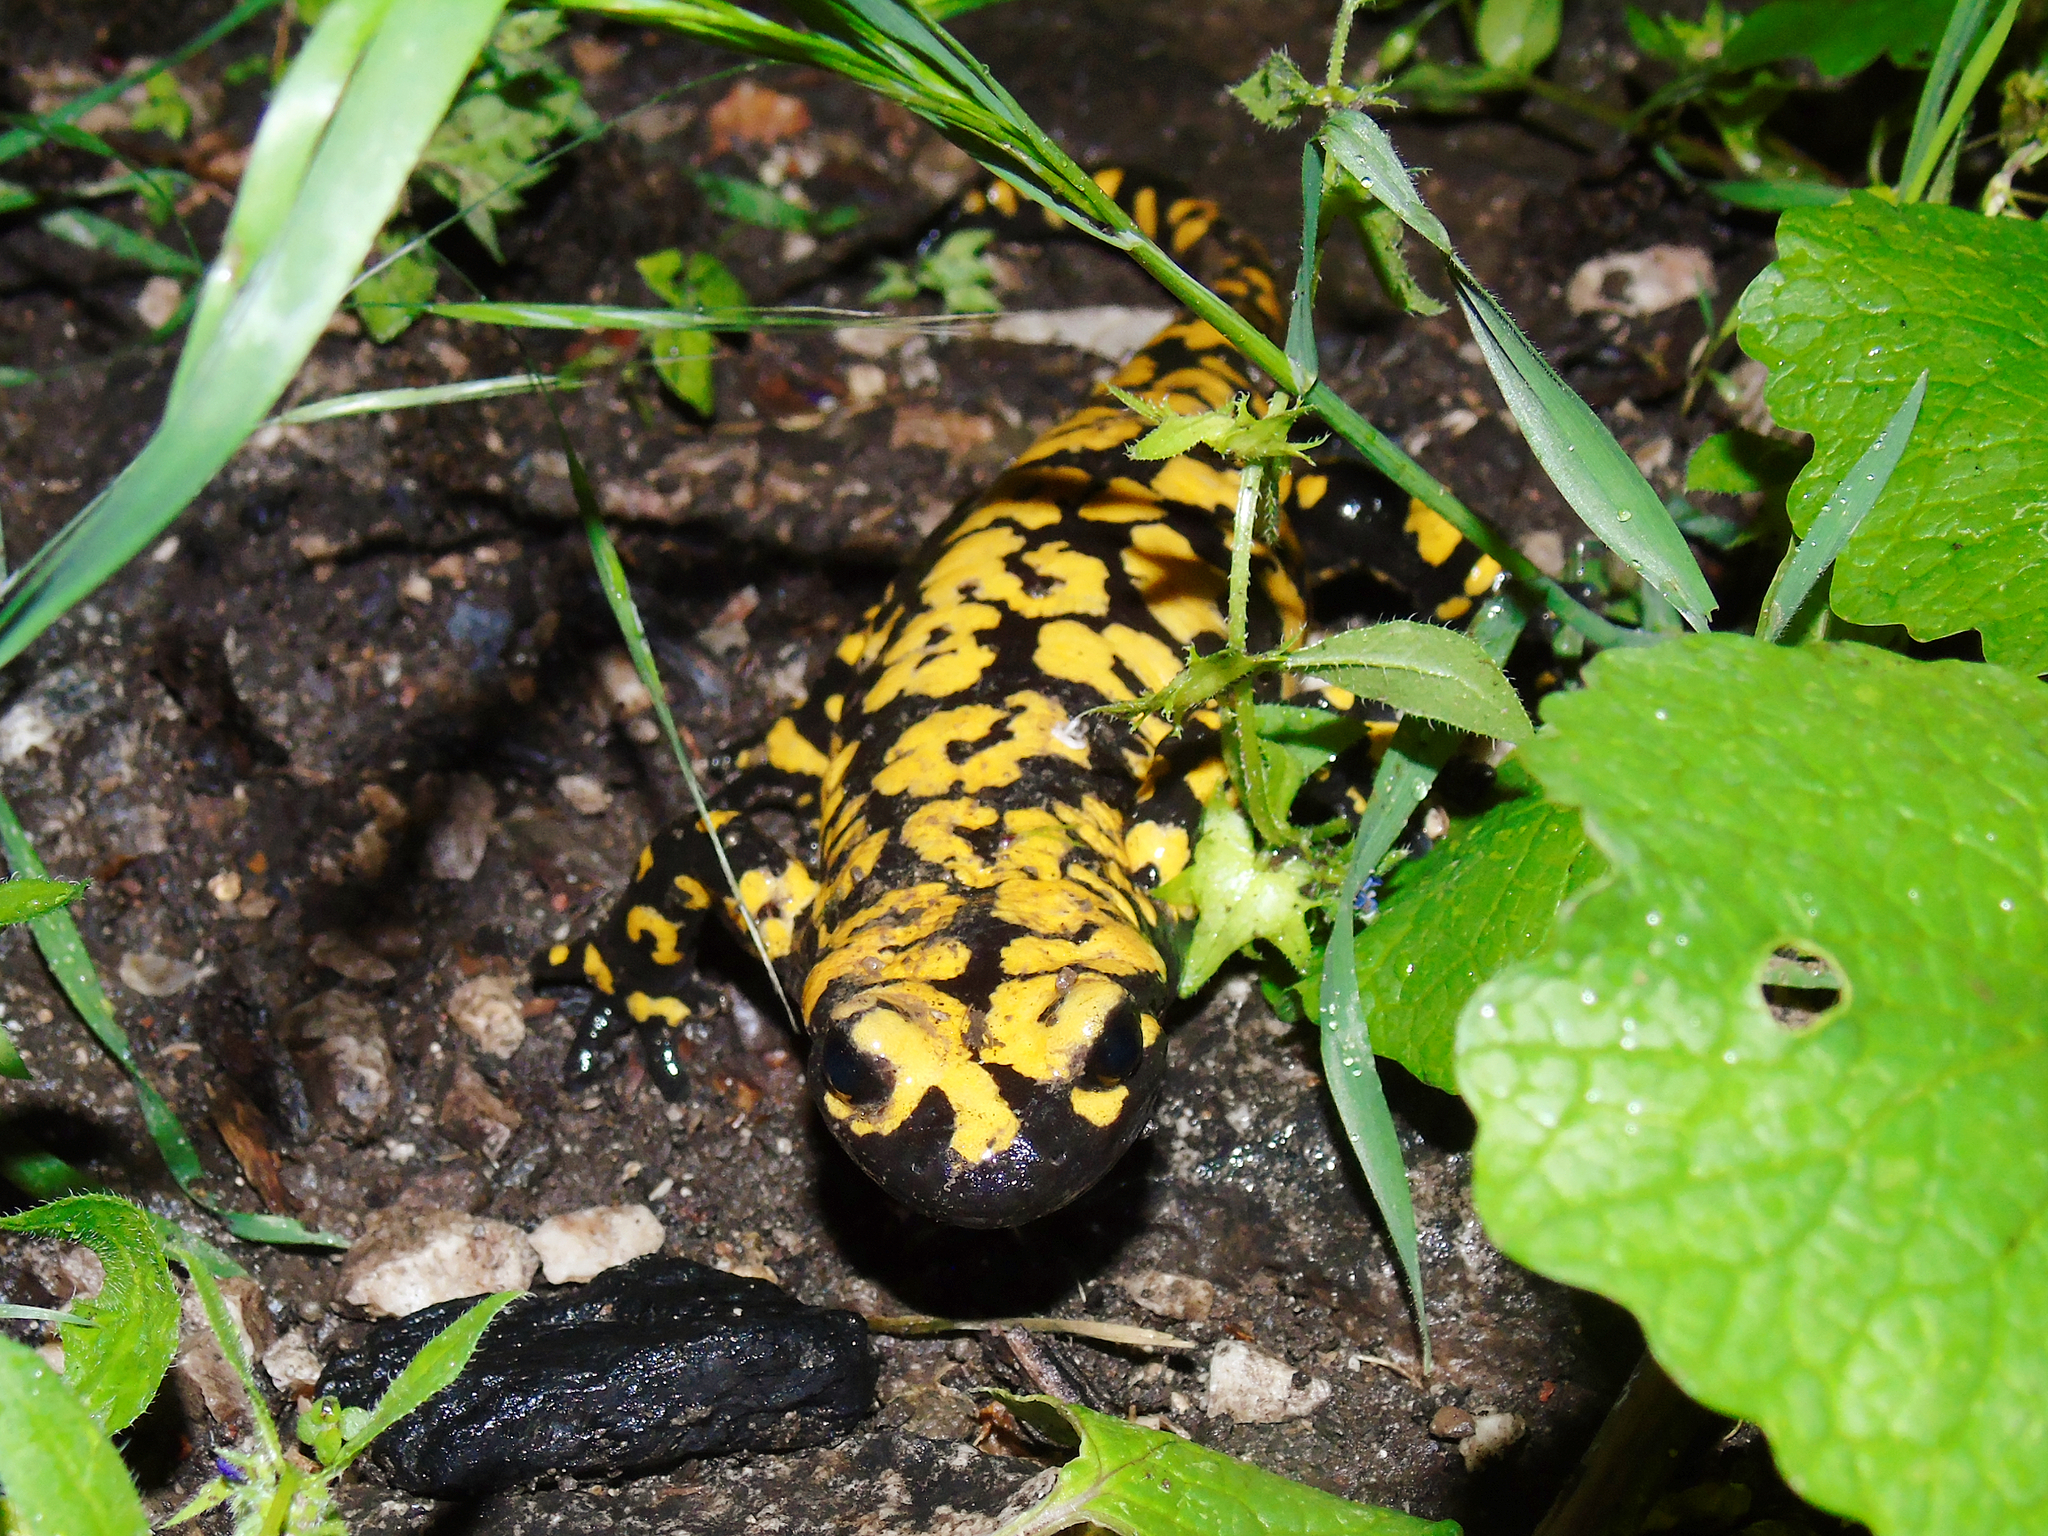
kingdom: Animalia
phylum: Chordata
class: Amphibia
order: Caudata
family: Salamandridae
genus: Salamandra
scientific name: Salamandra infraimmaculata
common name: Near-eastern fire salamander
